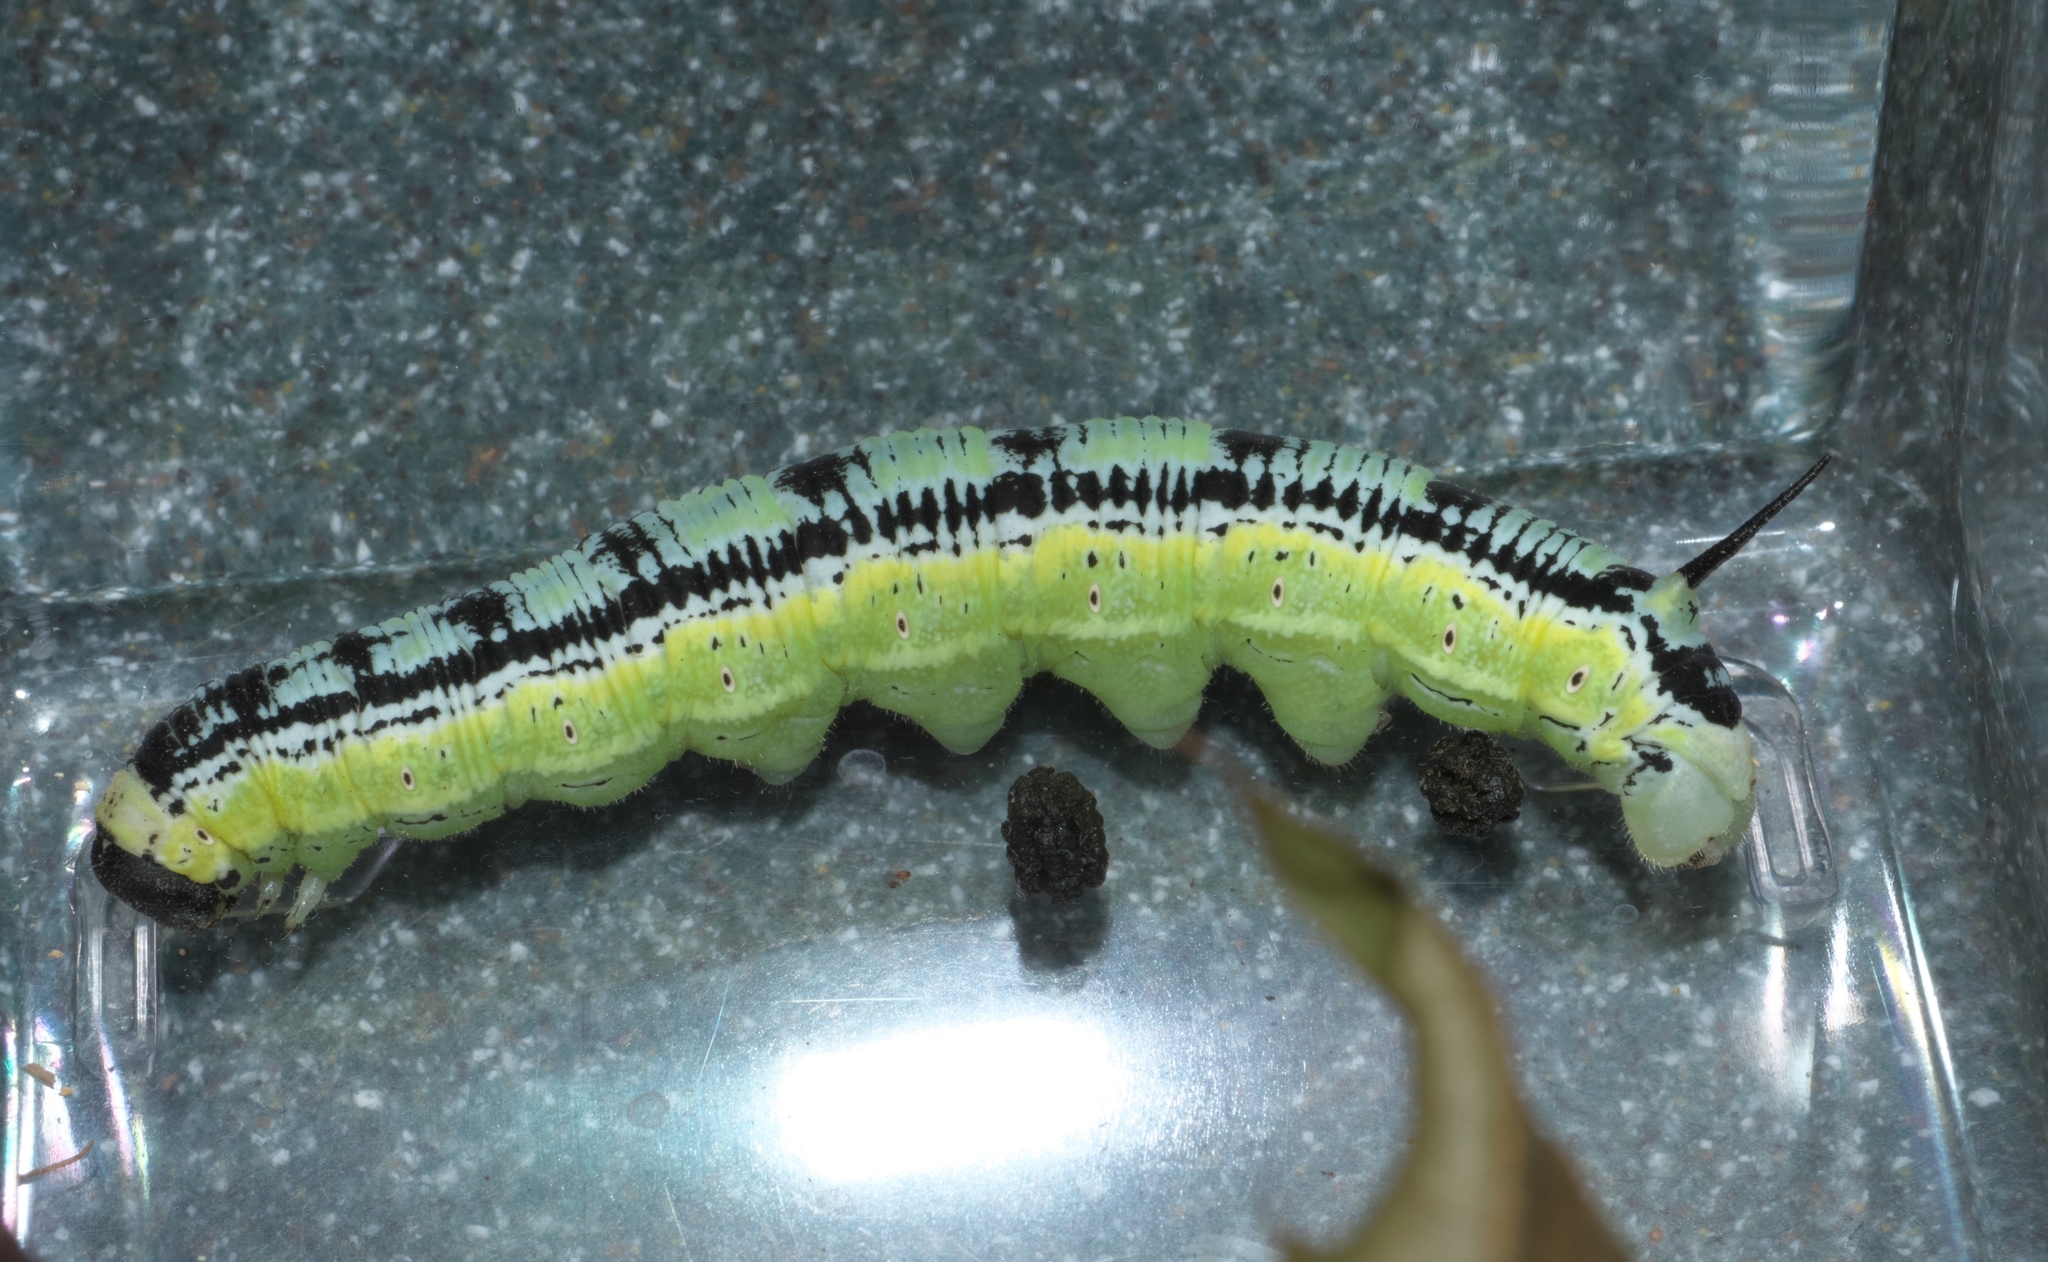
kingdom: Animalia
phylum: Arthropoda
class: Insecta
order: Lepidoptera
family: Sphingidae
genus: Ceratomia
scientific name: Ceratomia catalpae
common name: Catalpa hornworm
